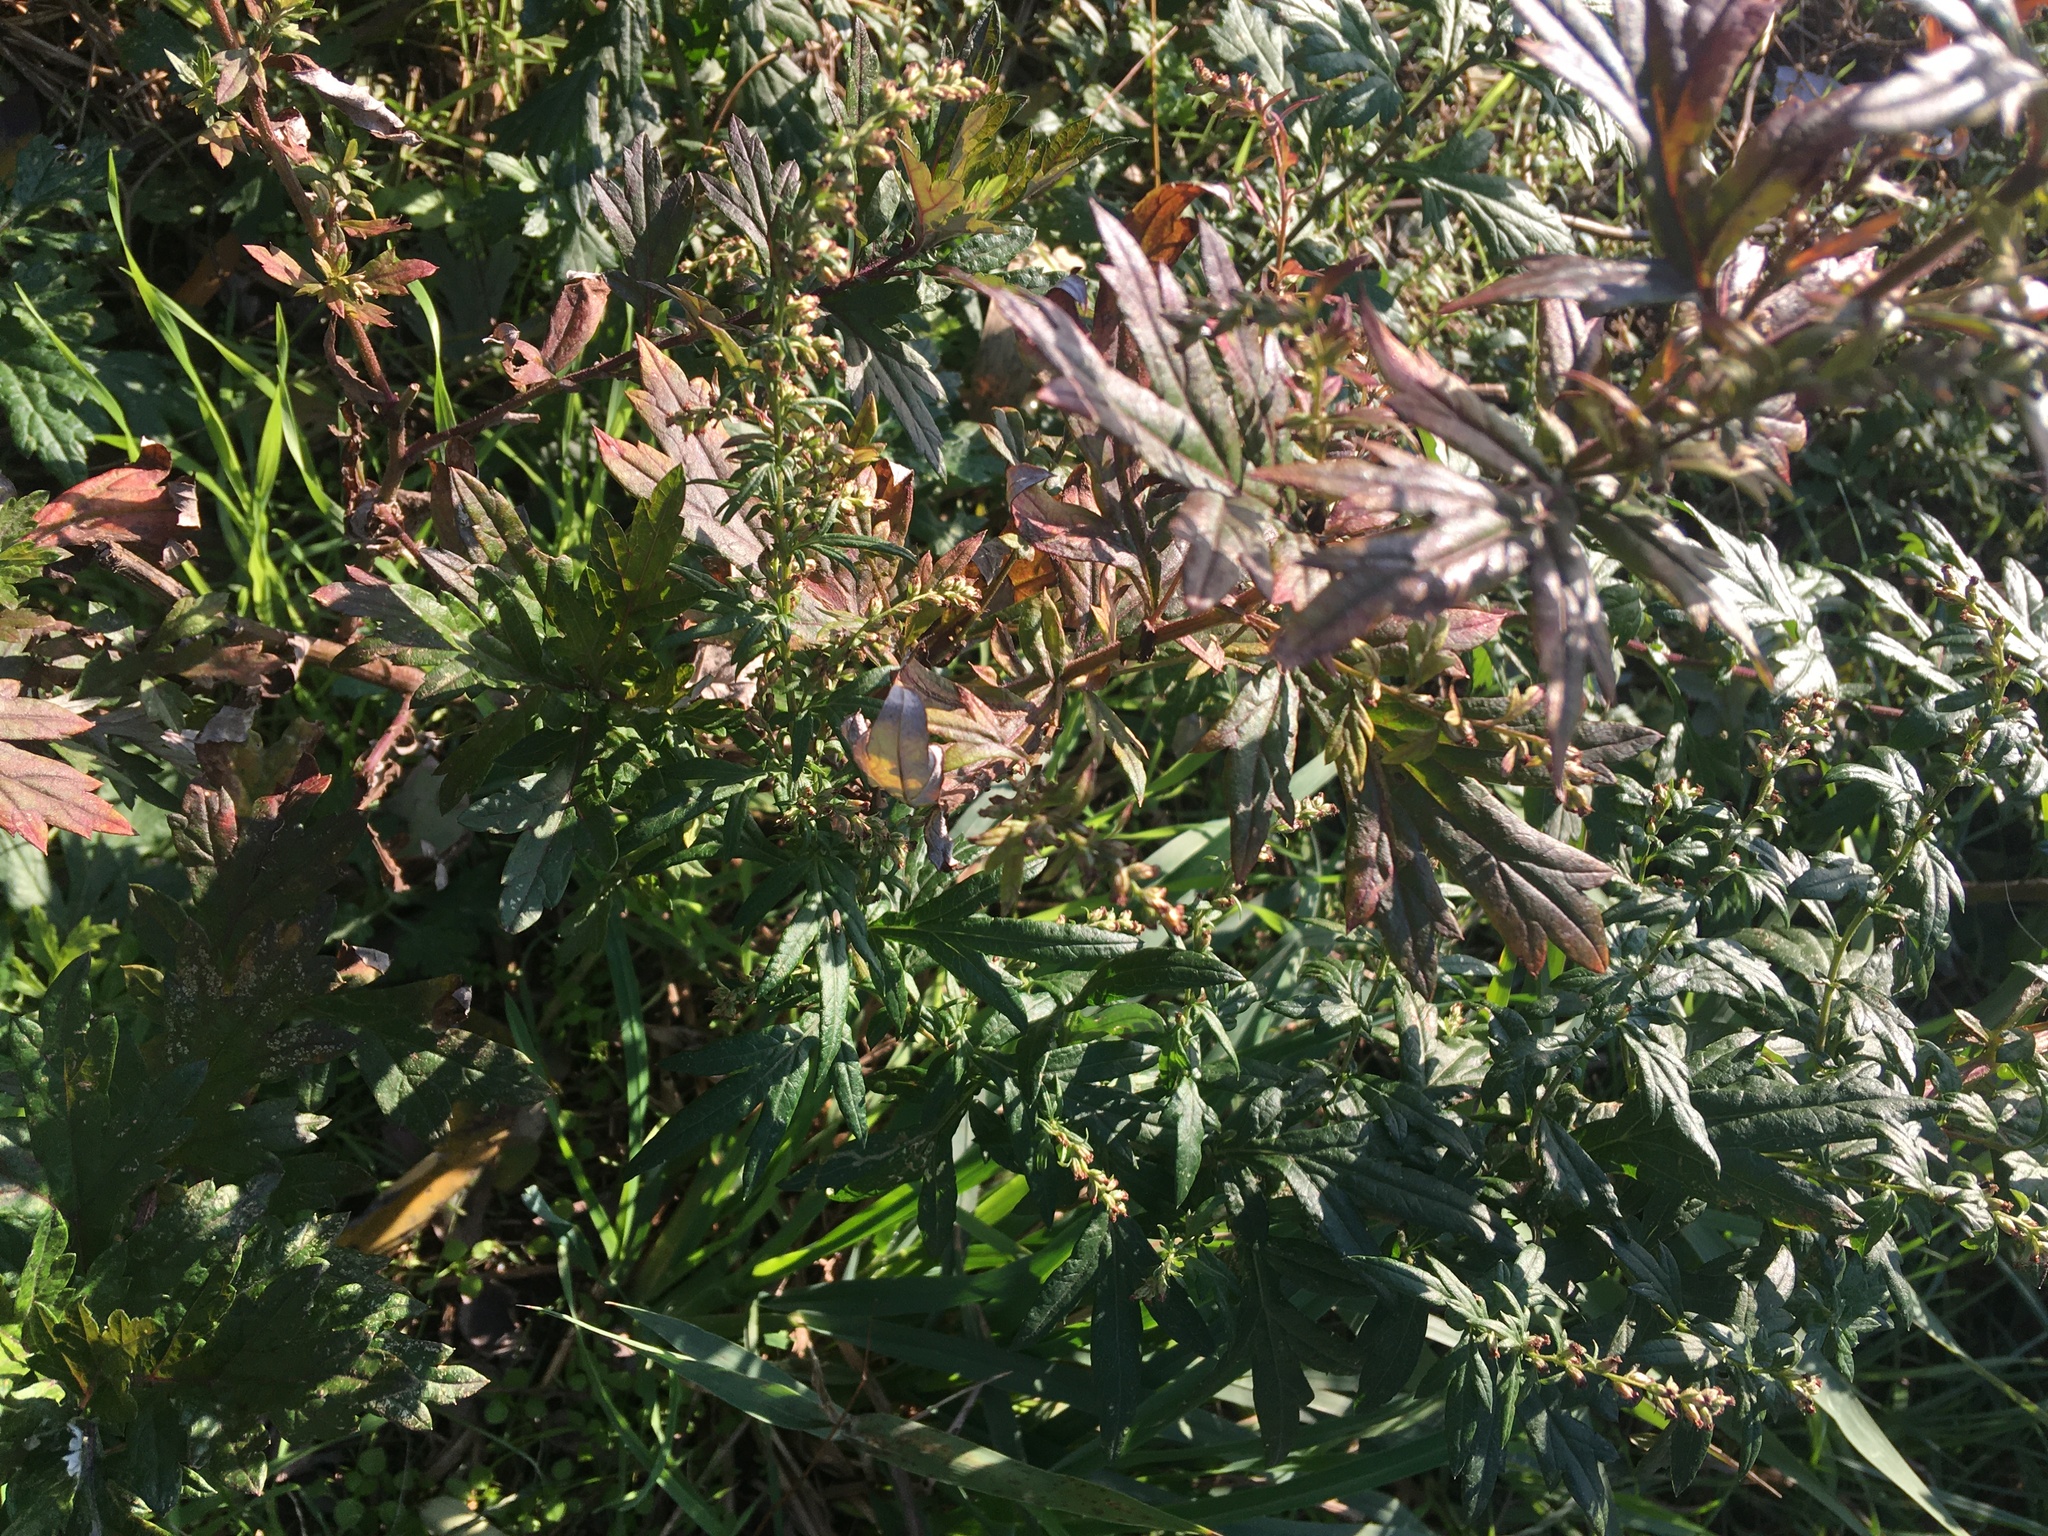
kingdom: Plantae
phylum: Tracheophyta
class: Magnoliopsida
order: Asterales
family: Asteraceae
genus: Artemisia
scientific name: Artemisia vulgaris
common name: Mugwort
